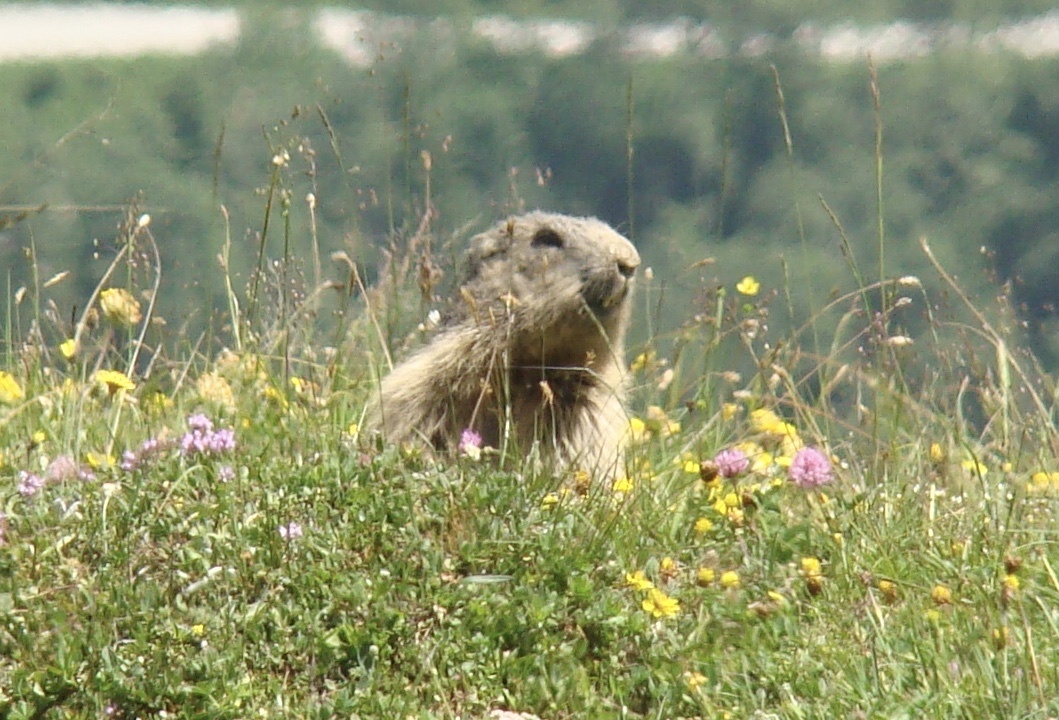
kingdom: Animalia
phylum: Chordata
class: Mammalia
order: Rodentia
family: Sciuridae
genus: Marmota
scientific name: Marmota marmota
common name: Alpine marmot
